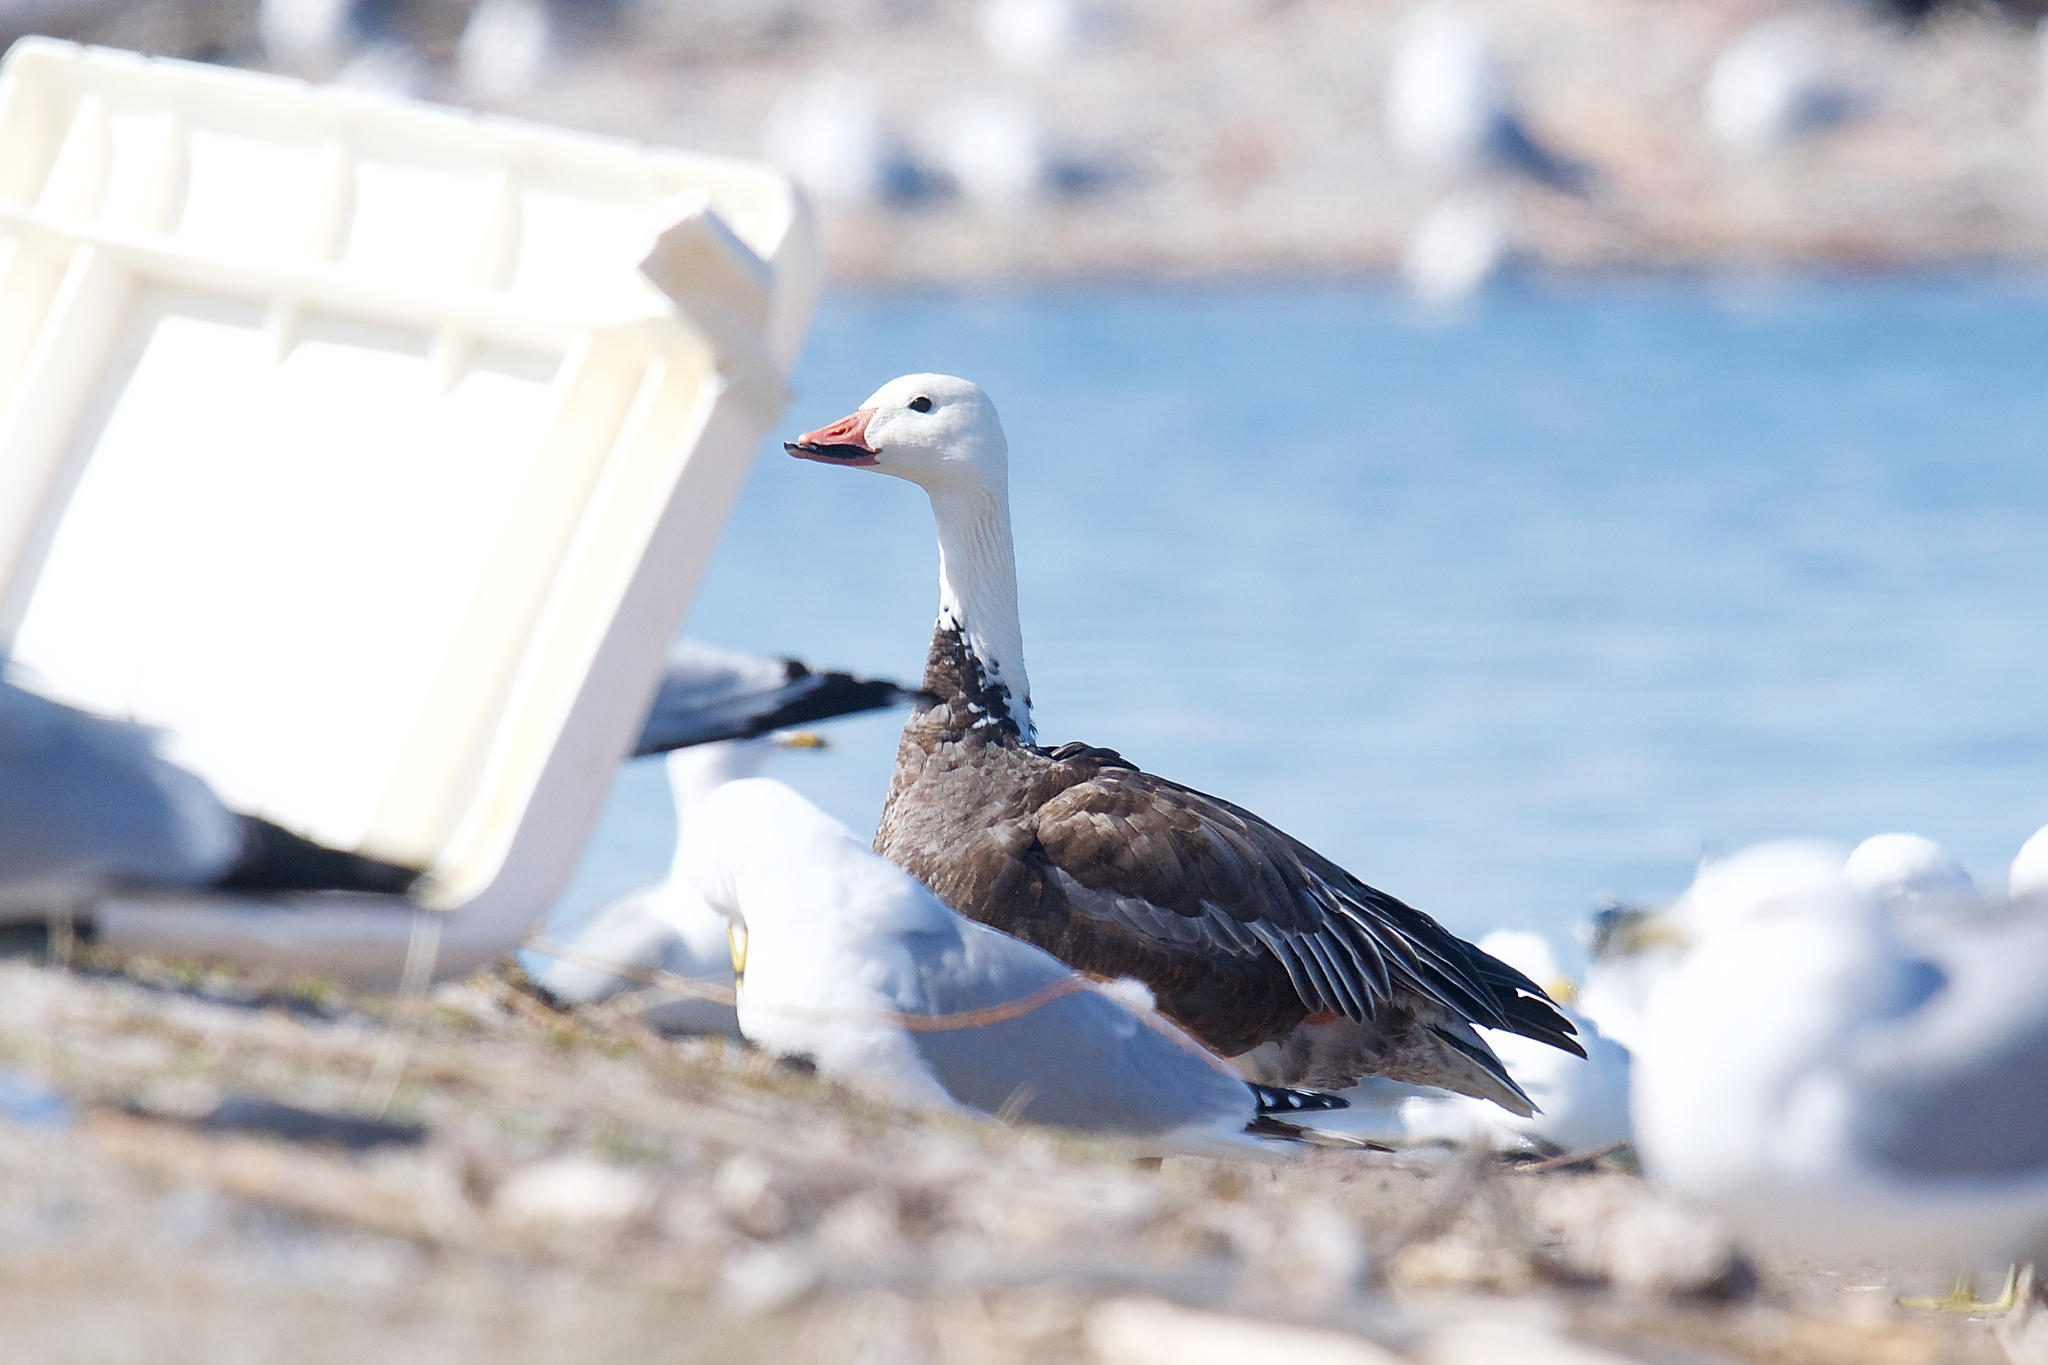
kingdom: Animalia
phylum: Chordata
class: Aves
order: Anseriformes
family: Anatidae
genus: Anser
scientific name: Anser caerulescens
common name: Snow goose
